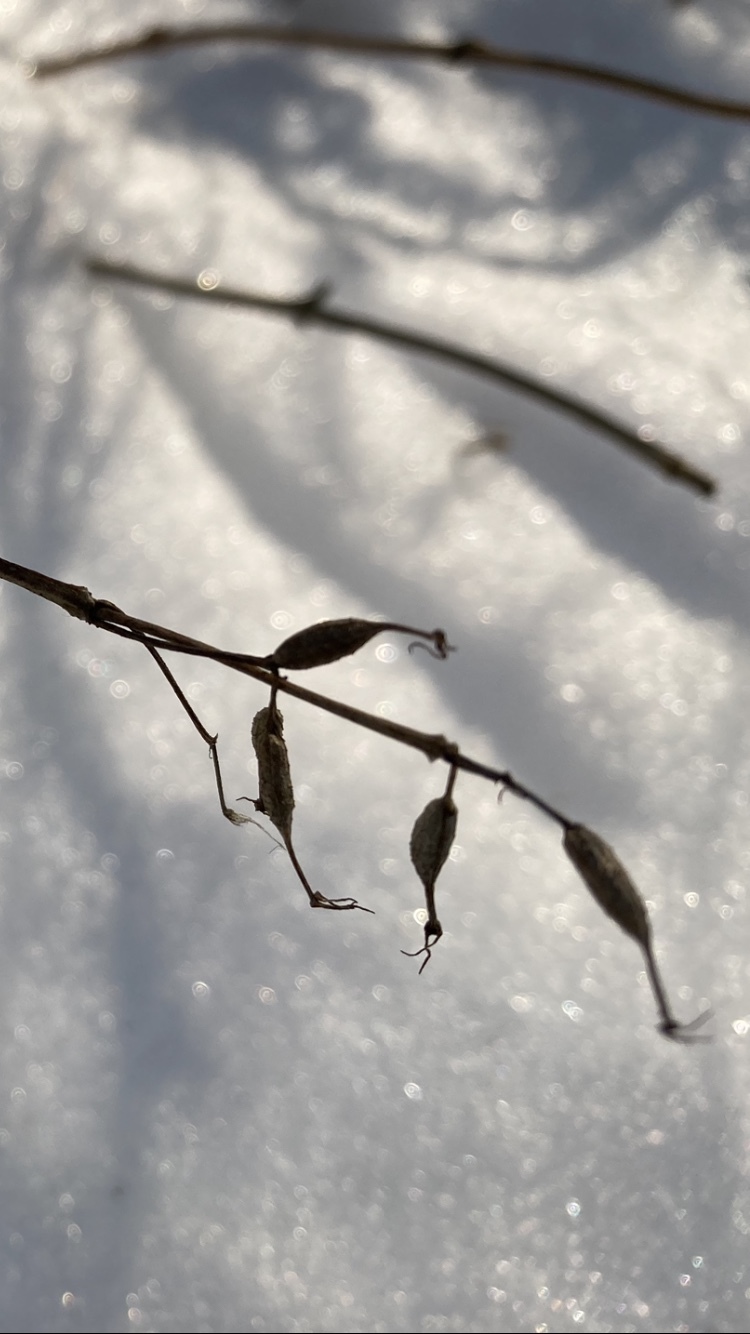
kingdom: Plantae
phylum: Tracheophyta
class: Magnoliopsida
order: Dipsacales
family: Caprifoliaceae
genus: Diervilla
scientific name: Diervilla lonicera
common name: Bush-honeysuckle
